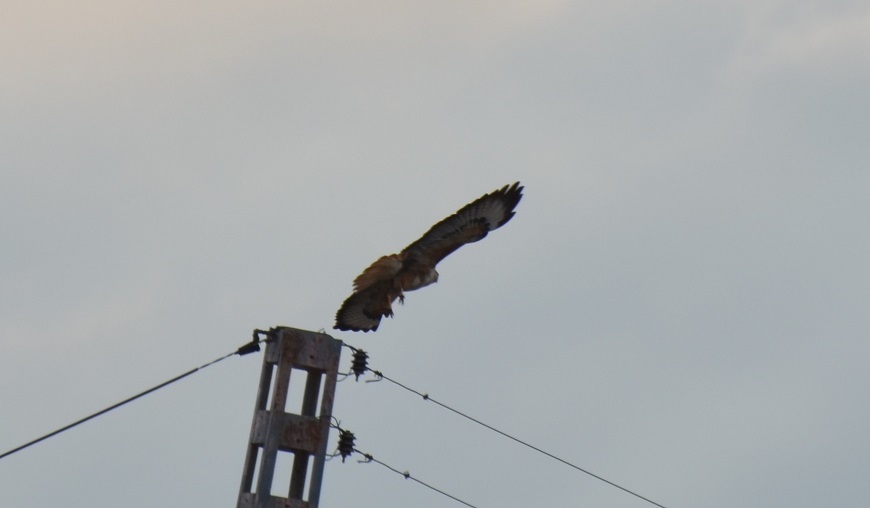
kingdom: Animalia
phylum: Chordata
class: Aves
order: Accipitriformes
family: Accipitridae
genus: Buteo
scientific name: Buteo rufinus
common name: Long-legged buzzard
